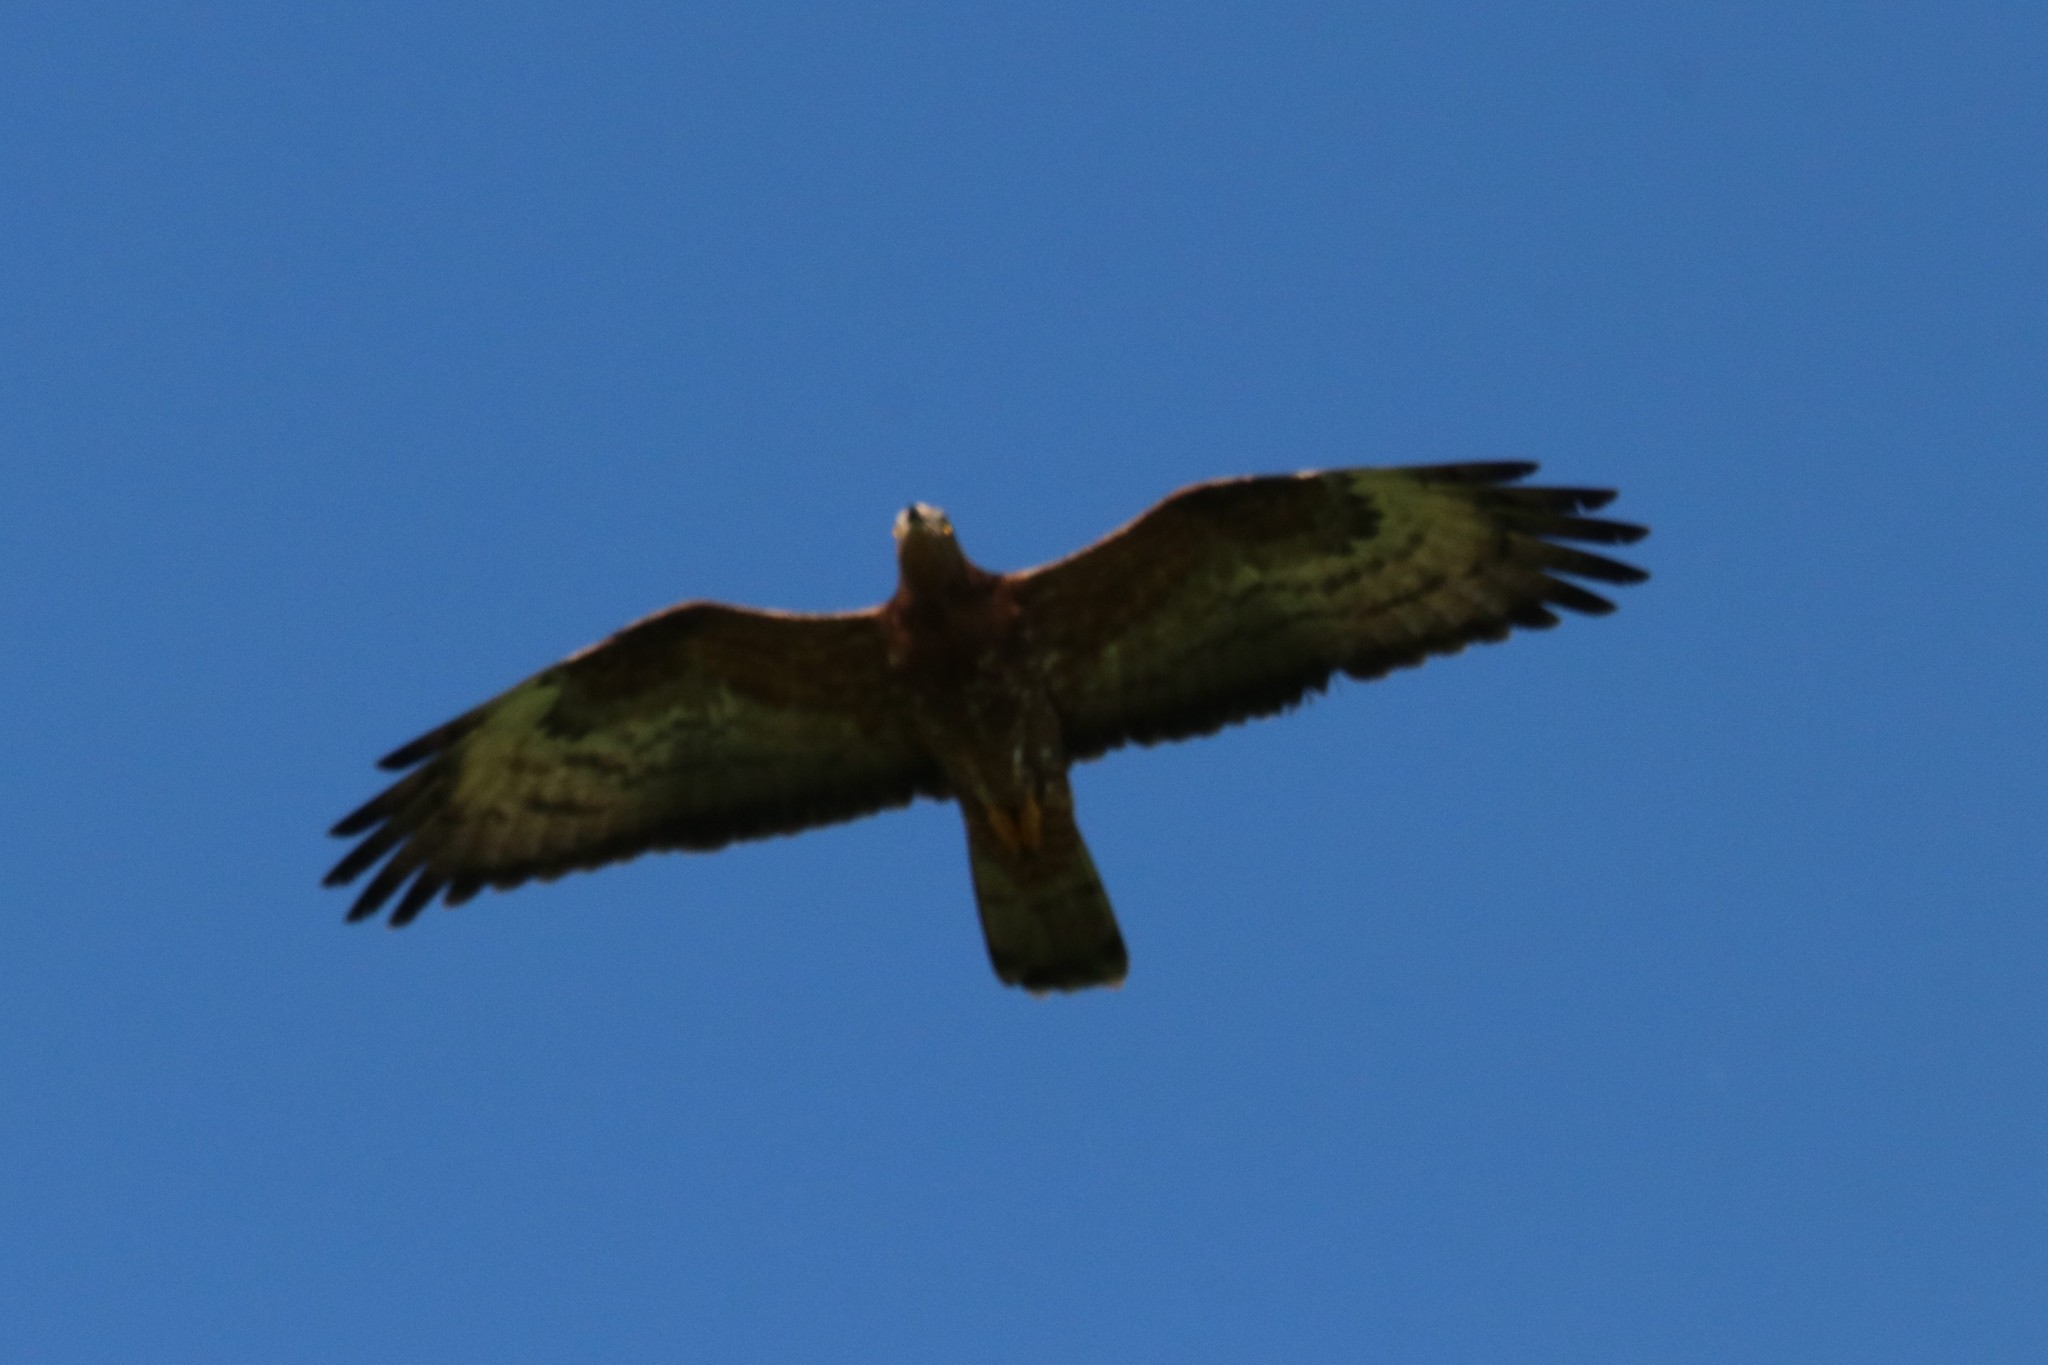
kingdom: Animalia
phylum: Chordata
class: Aves
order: Accipitriformes
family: Accipitridae
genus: Pernis
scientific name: Pernis apivorus
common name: European honey buzzard
